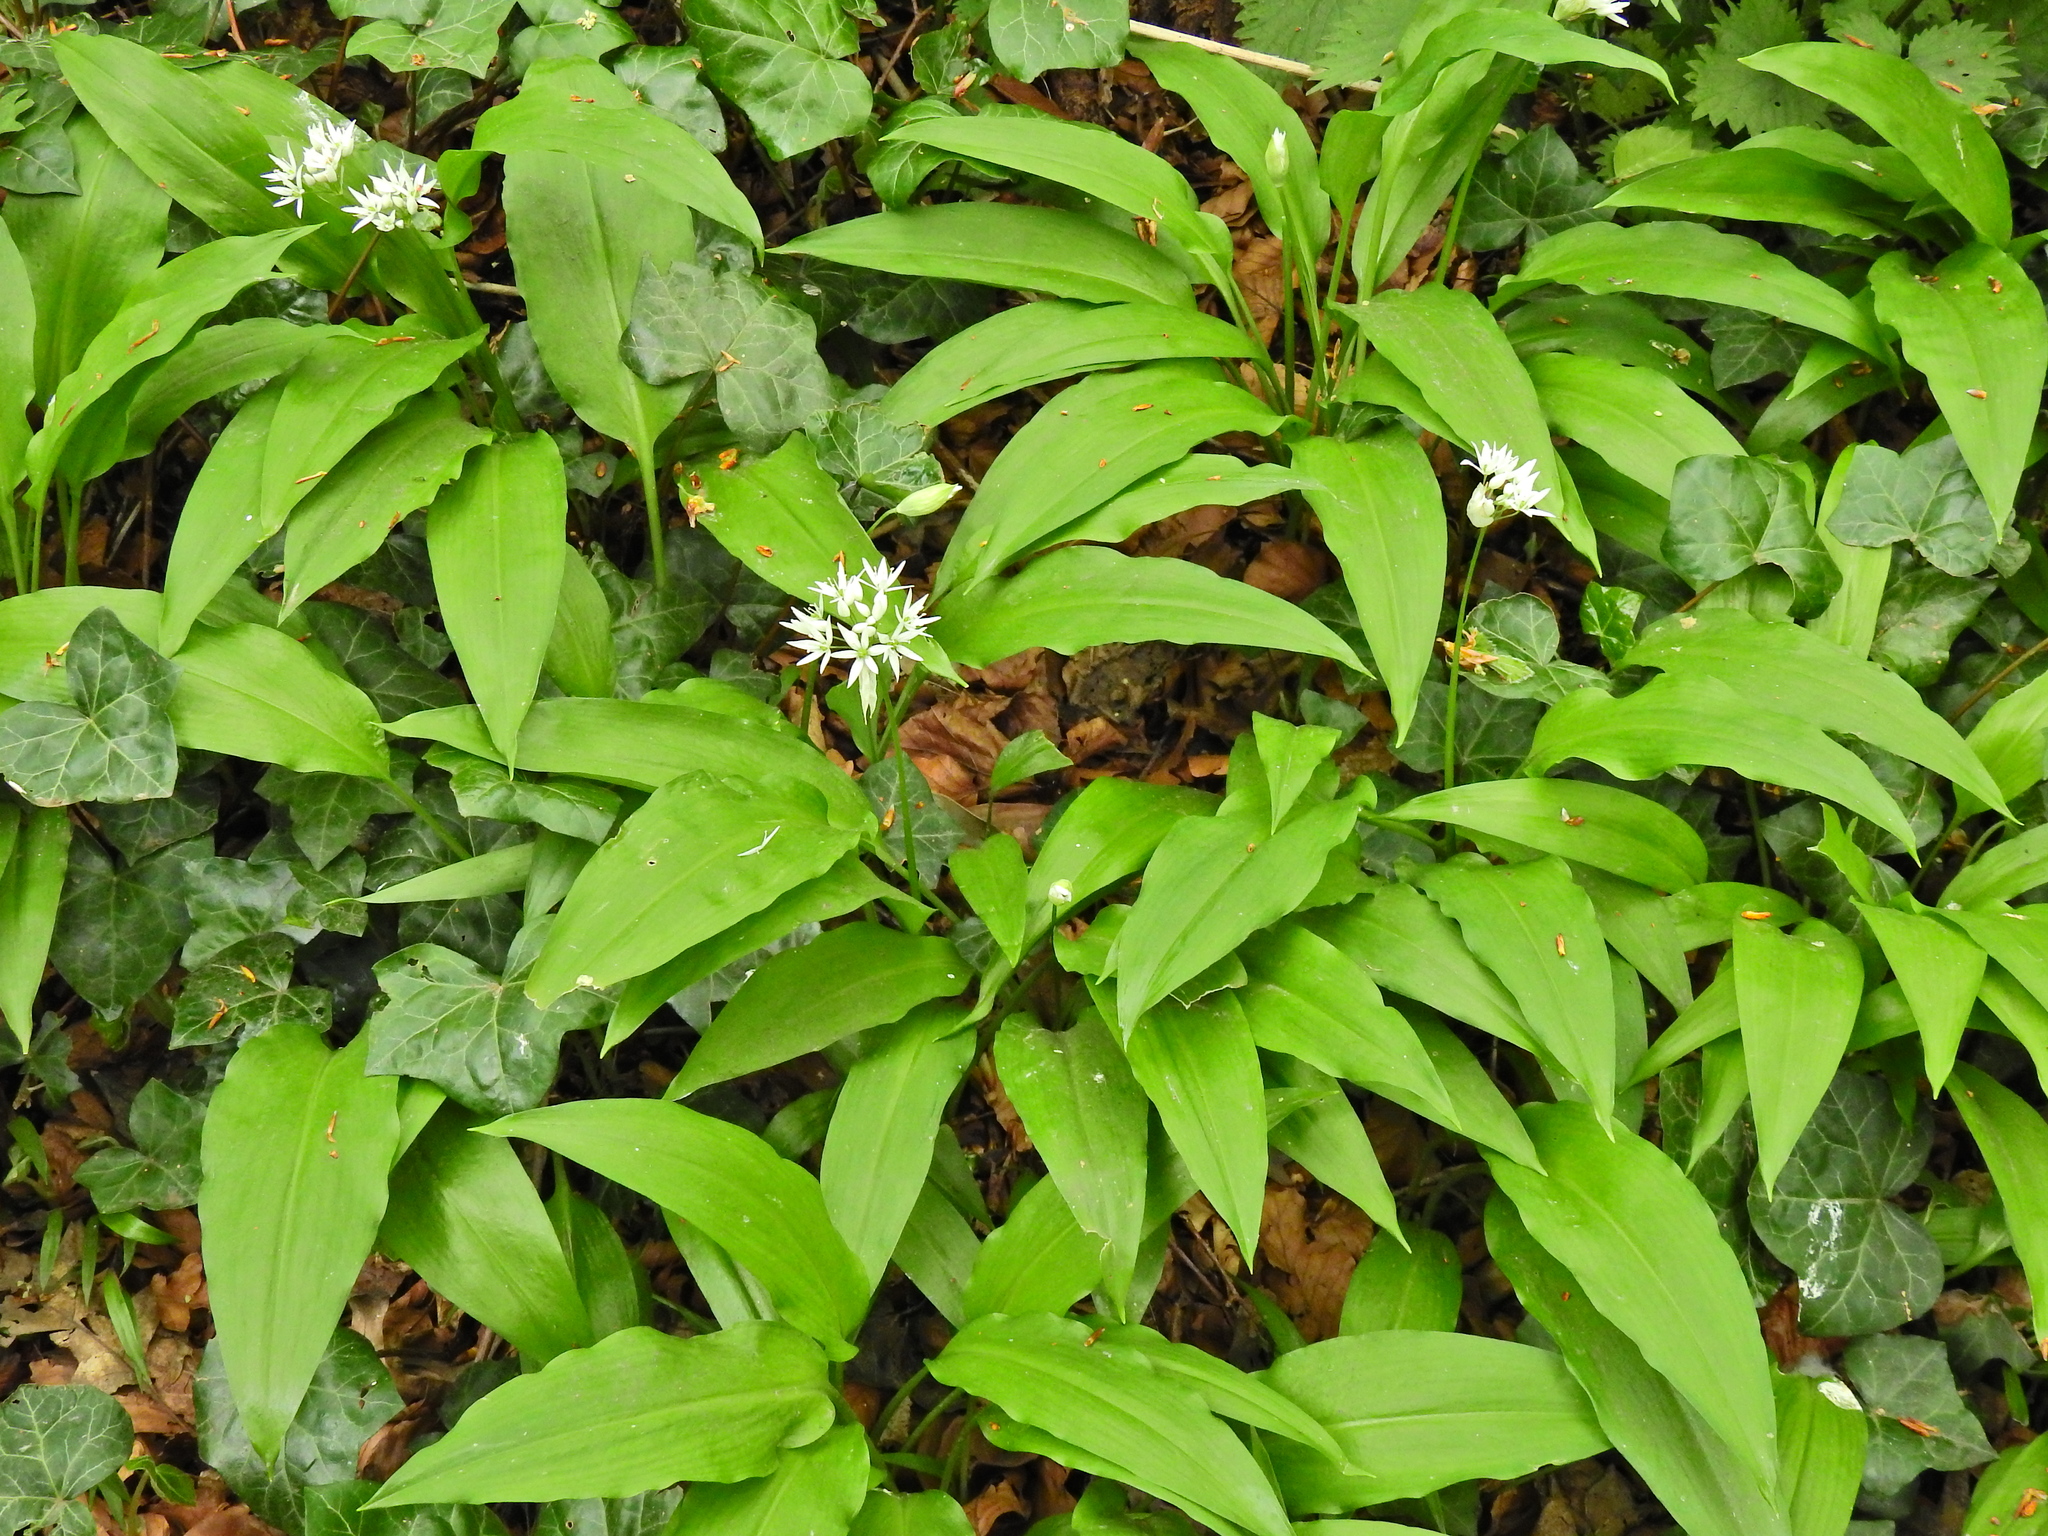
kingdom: Plantae
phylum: Tracheophyta
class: Liliopsida
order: Asparagales
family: Amaryllidaceae
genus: Allium
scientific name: Allium ursinum
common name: Ramsons
